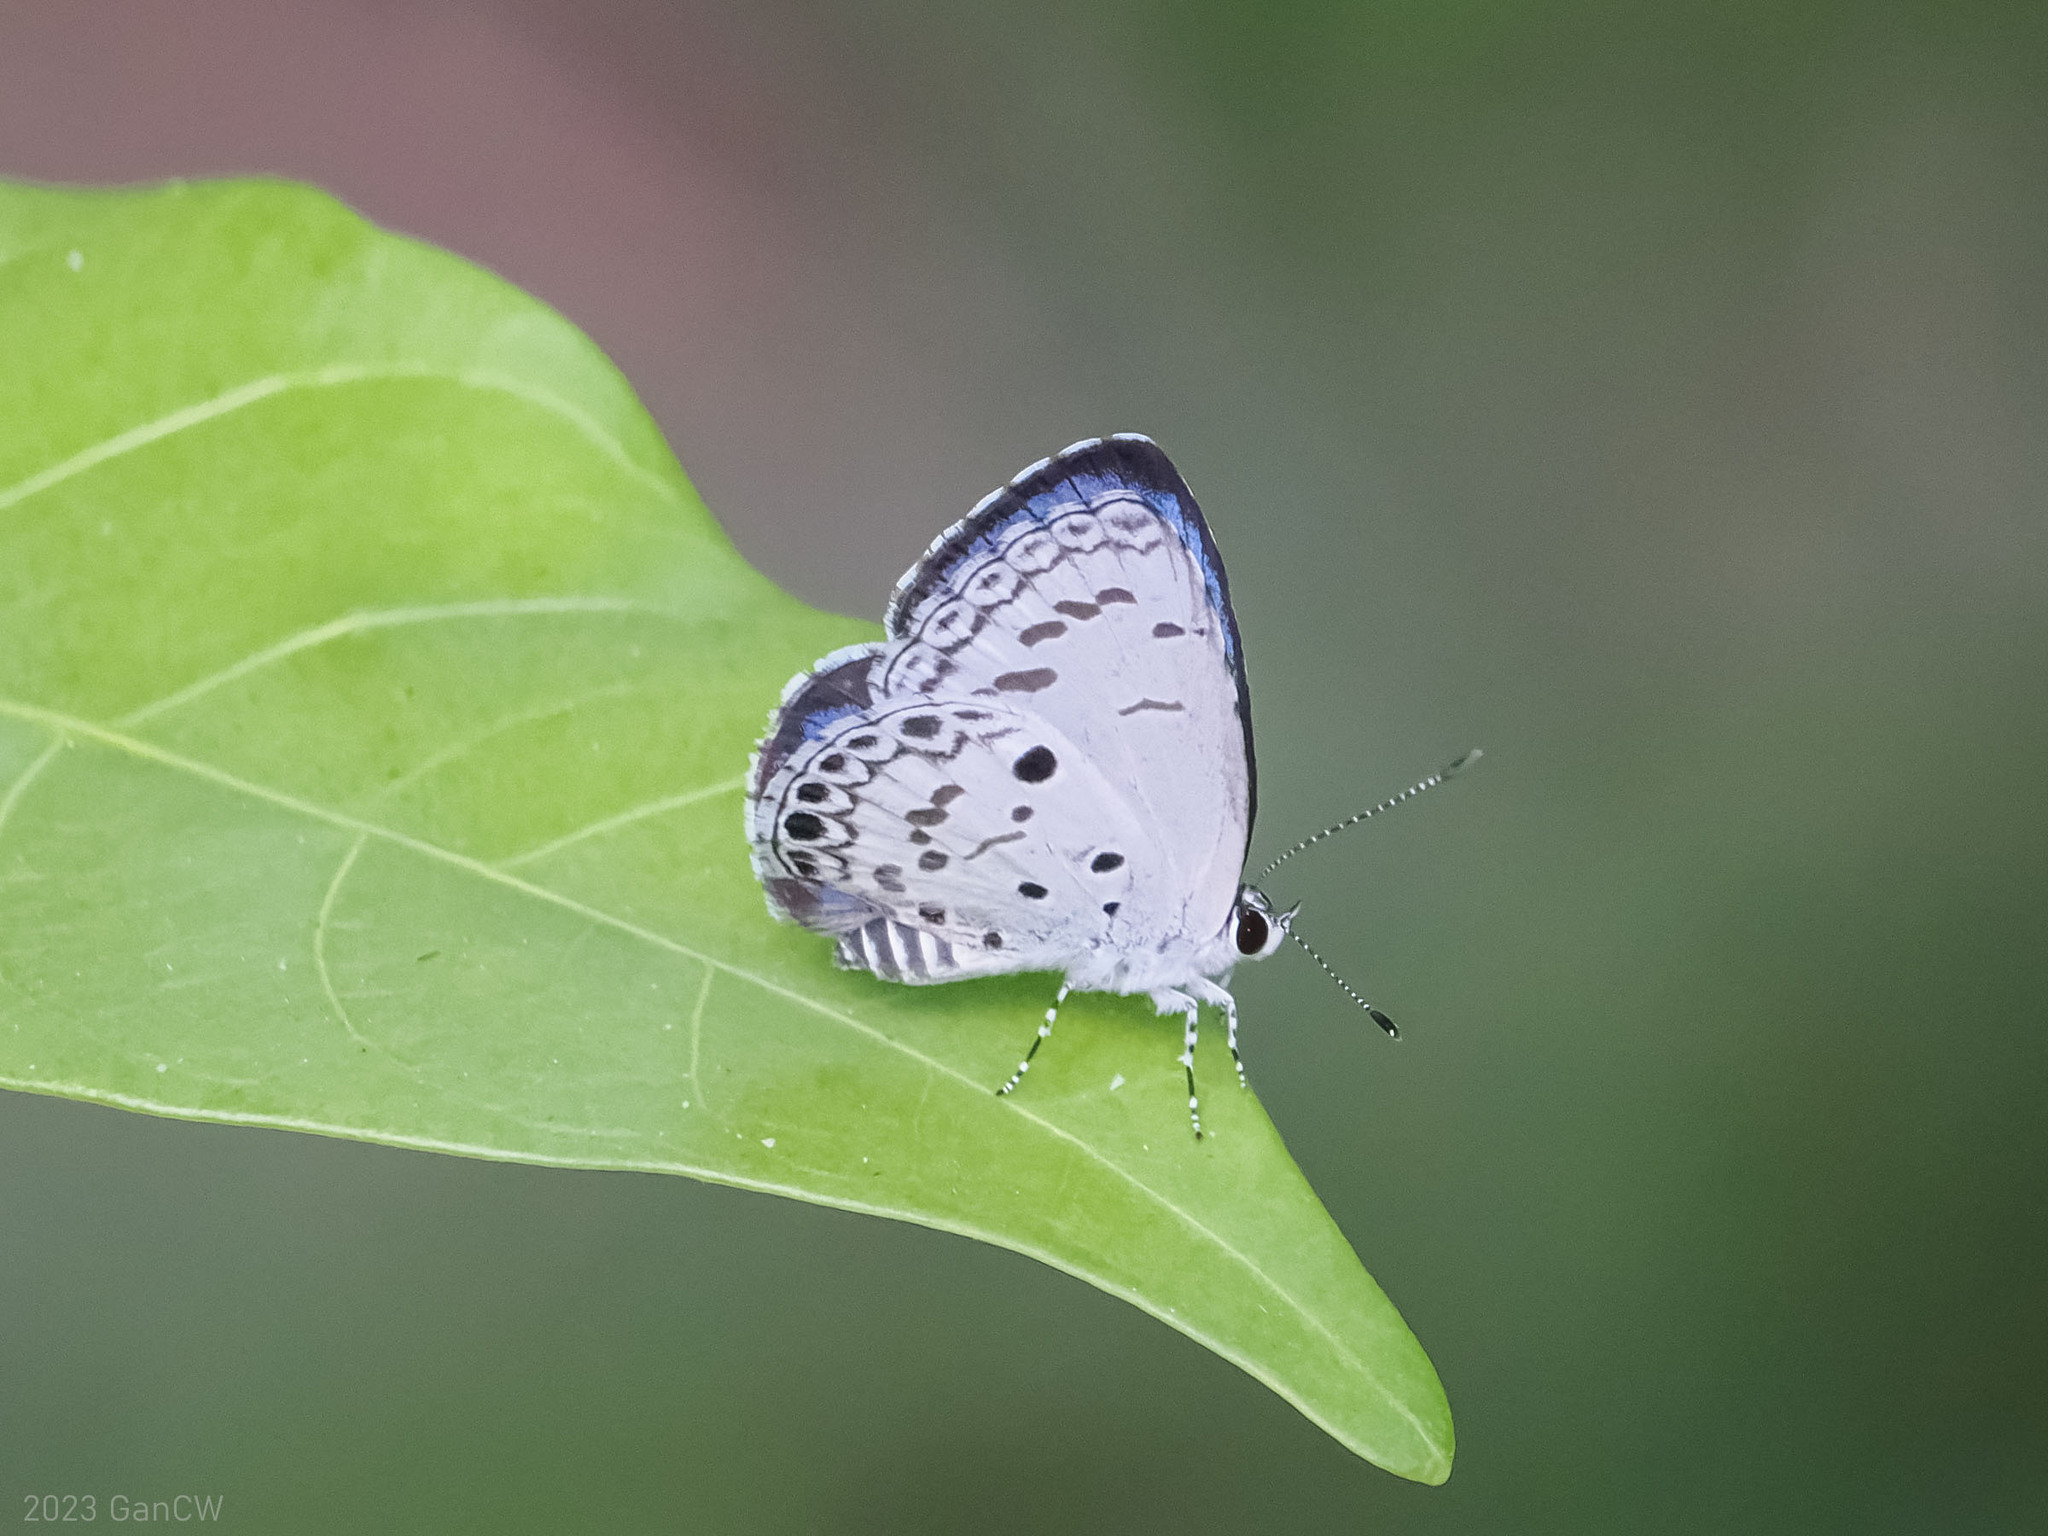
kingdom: Animalia
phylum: Arthropoda
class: Insecta
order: Lepidoptera
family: Lycaenidae
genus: Acytolepis
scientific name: Acytolepis puspa
